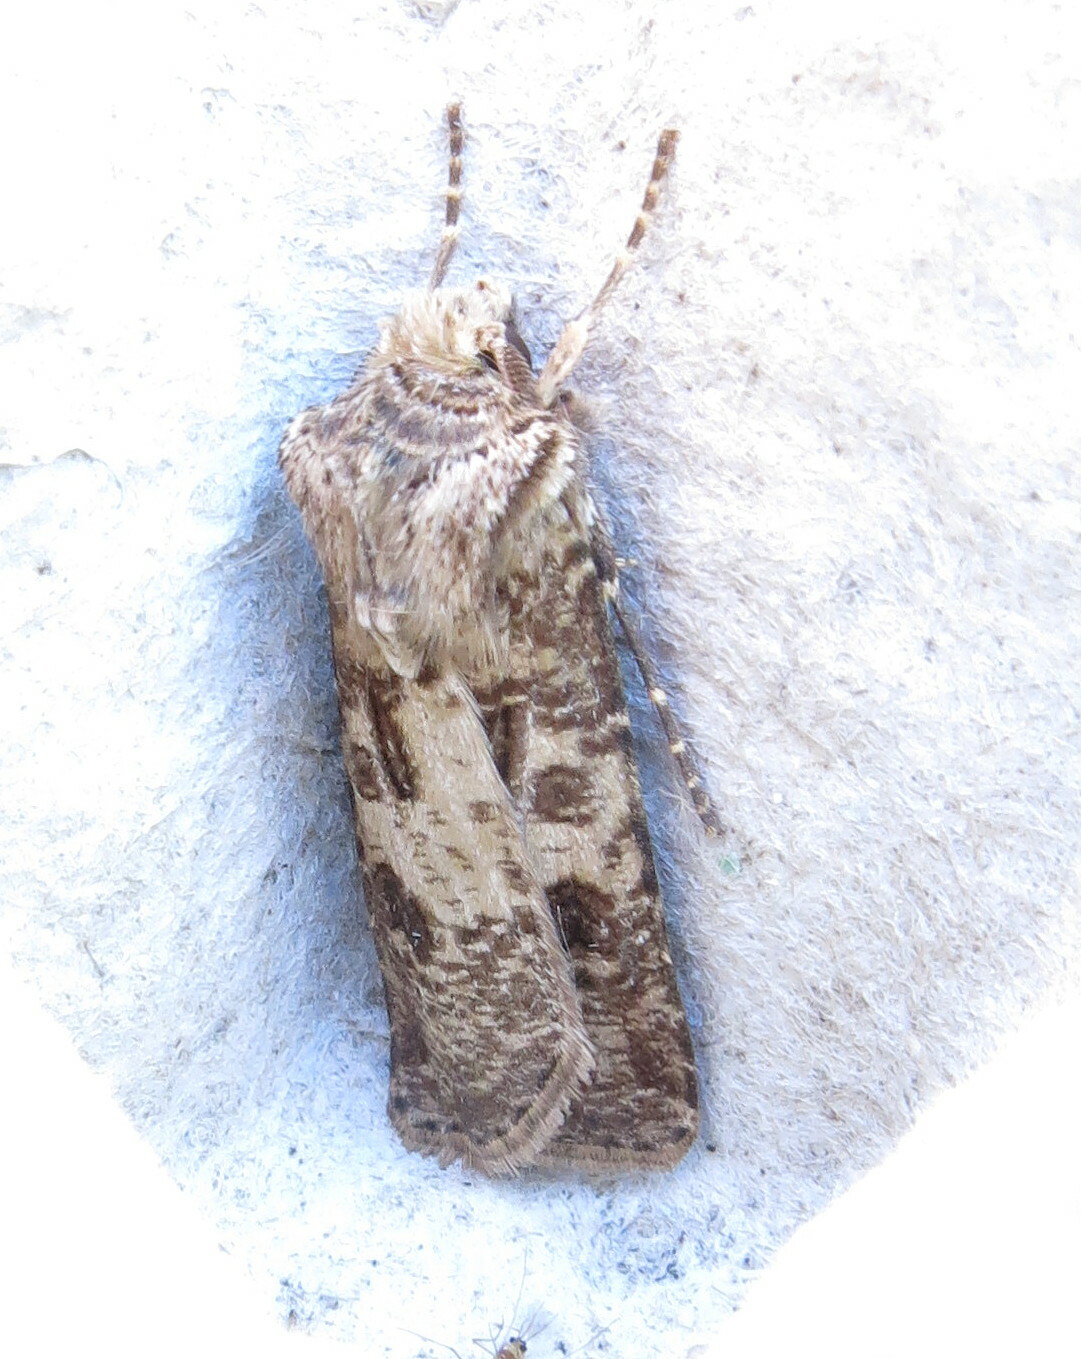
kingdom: Animalia
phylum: Arthropoda
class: Insecta
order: Lepidoptera
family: Noctuidae
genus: Agrotis
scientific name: Agrotis clavis
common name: Heart and club
